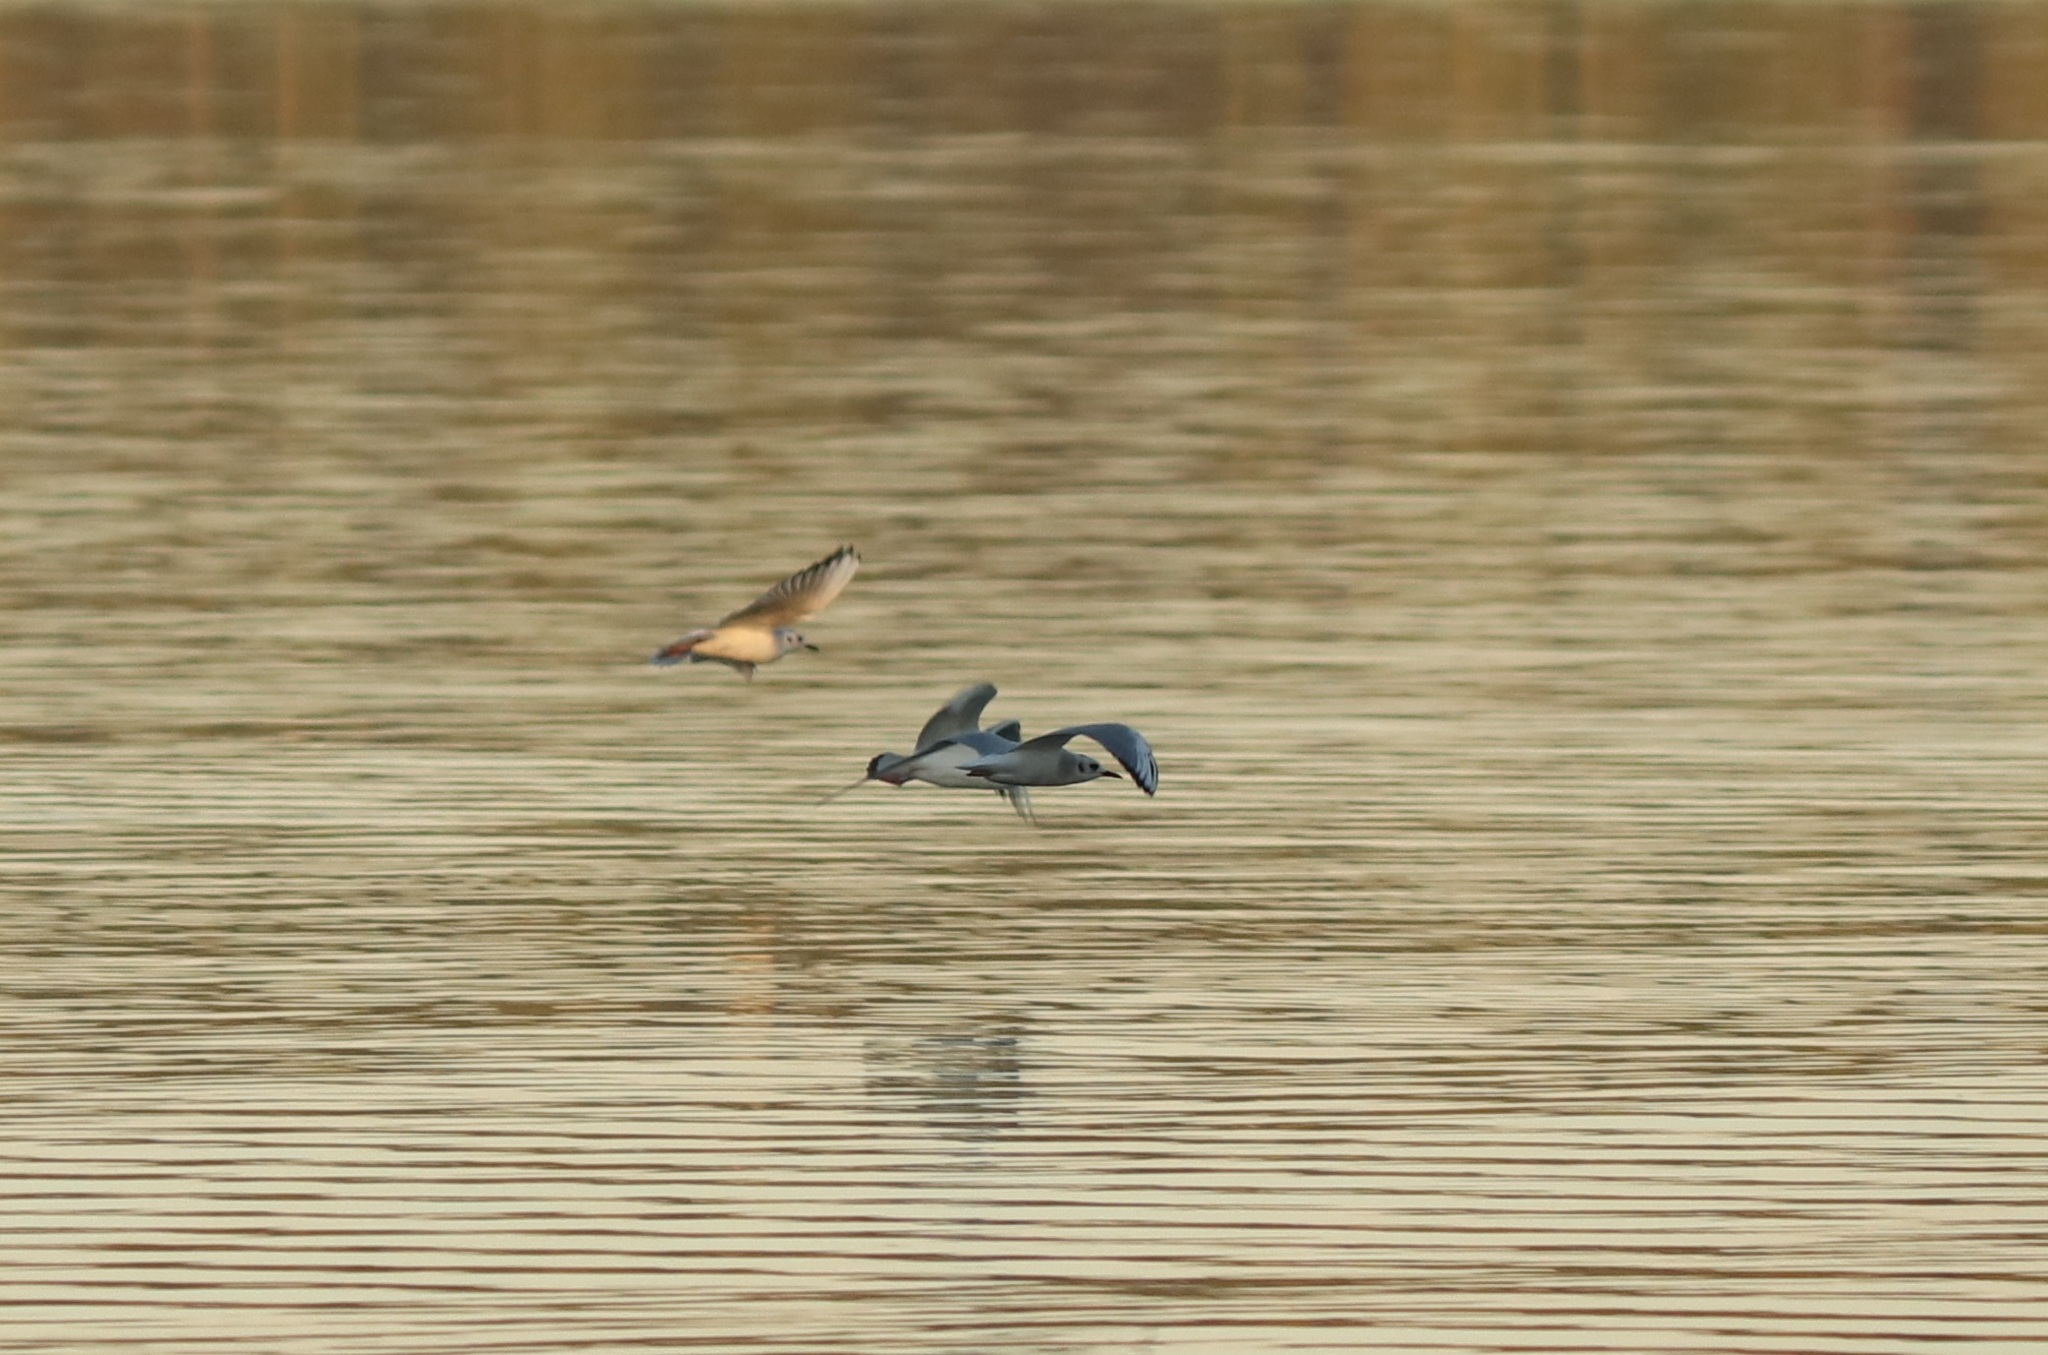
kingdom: Animalia
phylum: Chordata
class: Aves
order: Charadriiformes
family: Laridae
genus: Chroicocephalus
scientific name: Chroicocephalus philadelphia
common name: Bonaparte's gull
